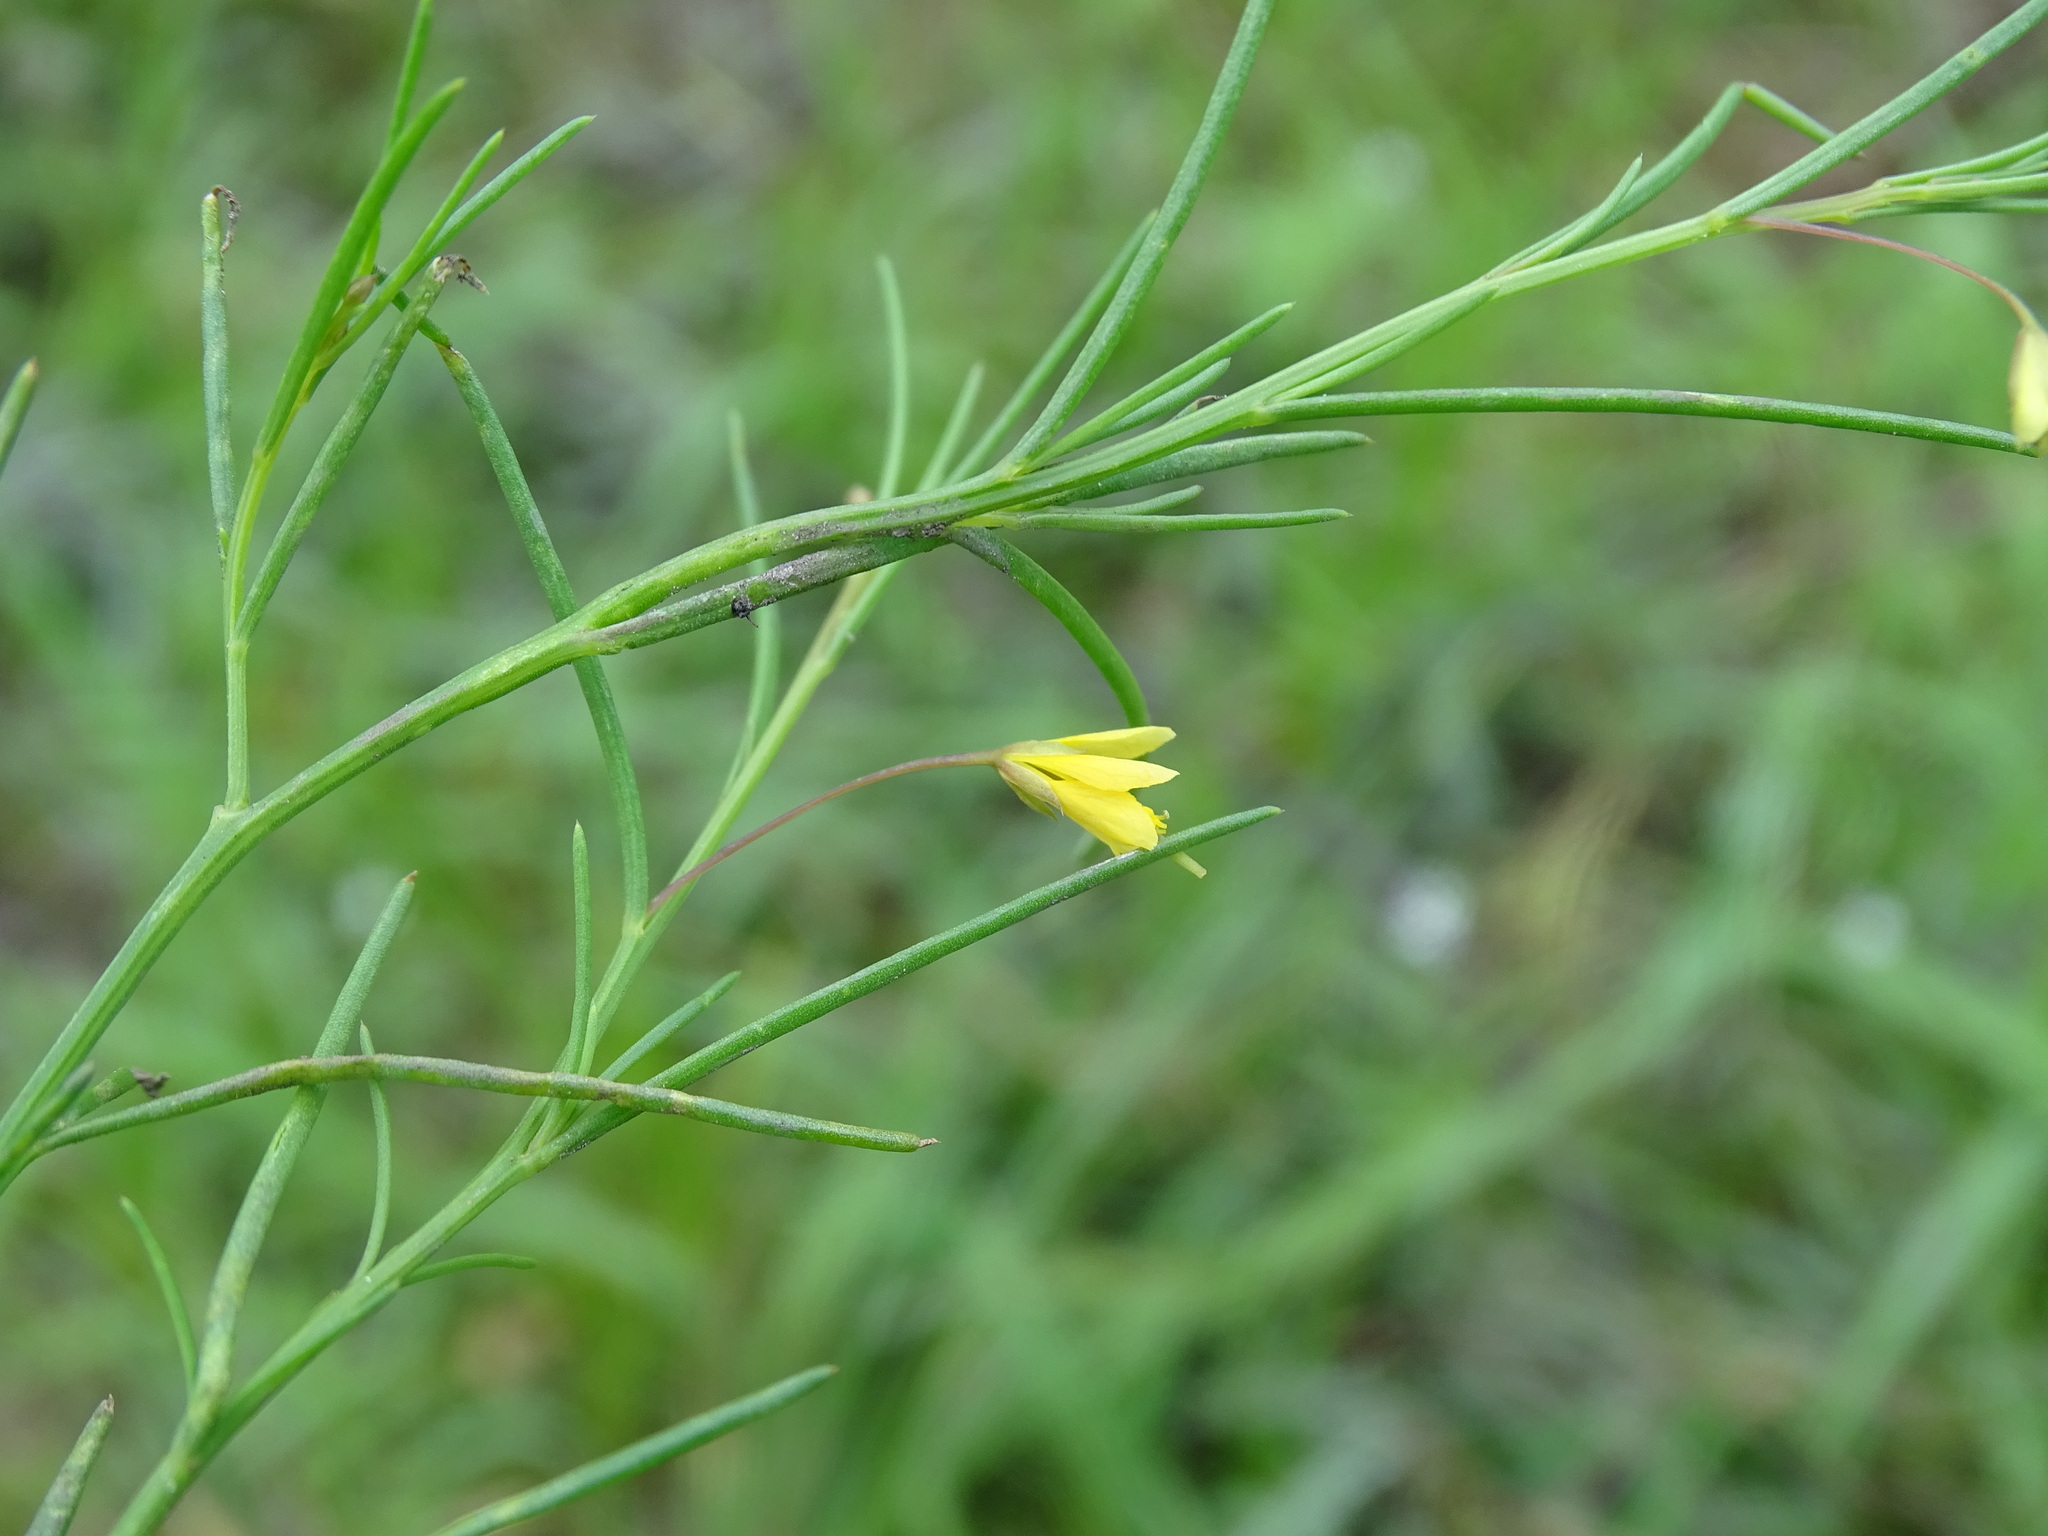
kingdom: Plantae
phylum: Tracheophyta
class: Magnoliopsida
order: Brassicales
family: Cleomaceae
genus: Physostemon
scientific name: Physostemon guianensis
